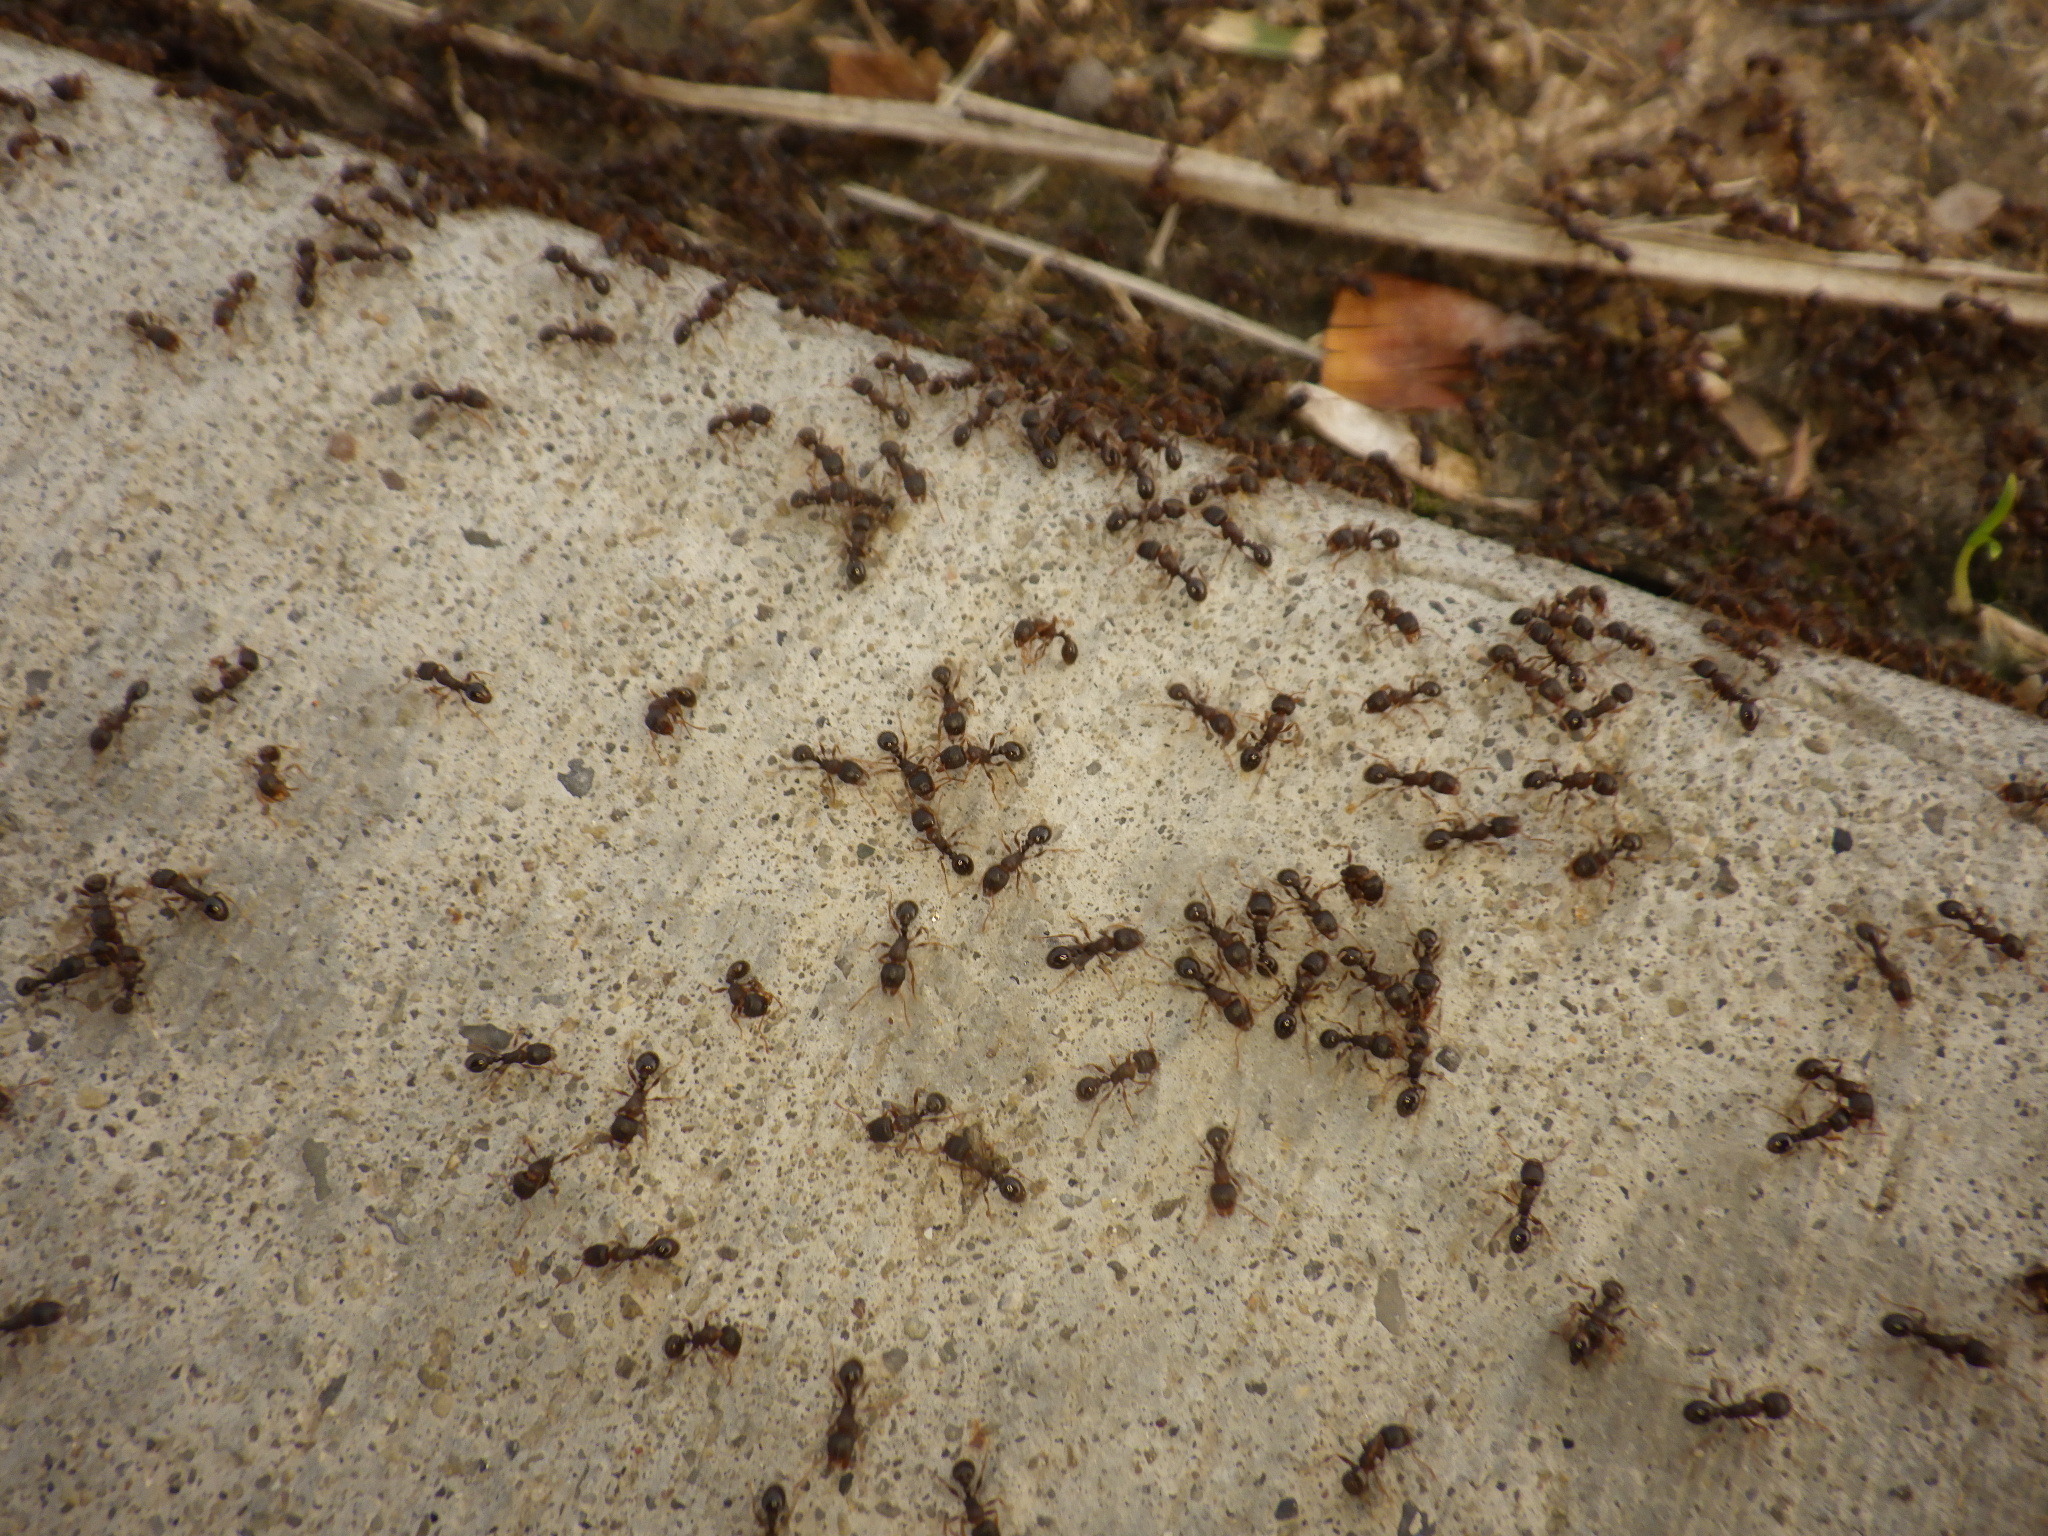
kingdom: Animalia
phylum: Arthropoda
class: Insecta
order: Hymenoptera
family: Formicidae
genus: Tetramorium
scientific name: Tetramorium immigrans
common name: Pavement ant
